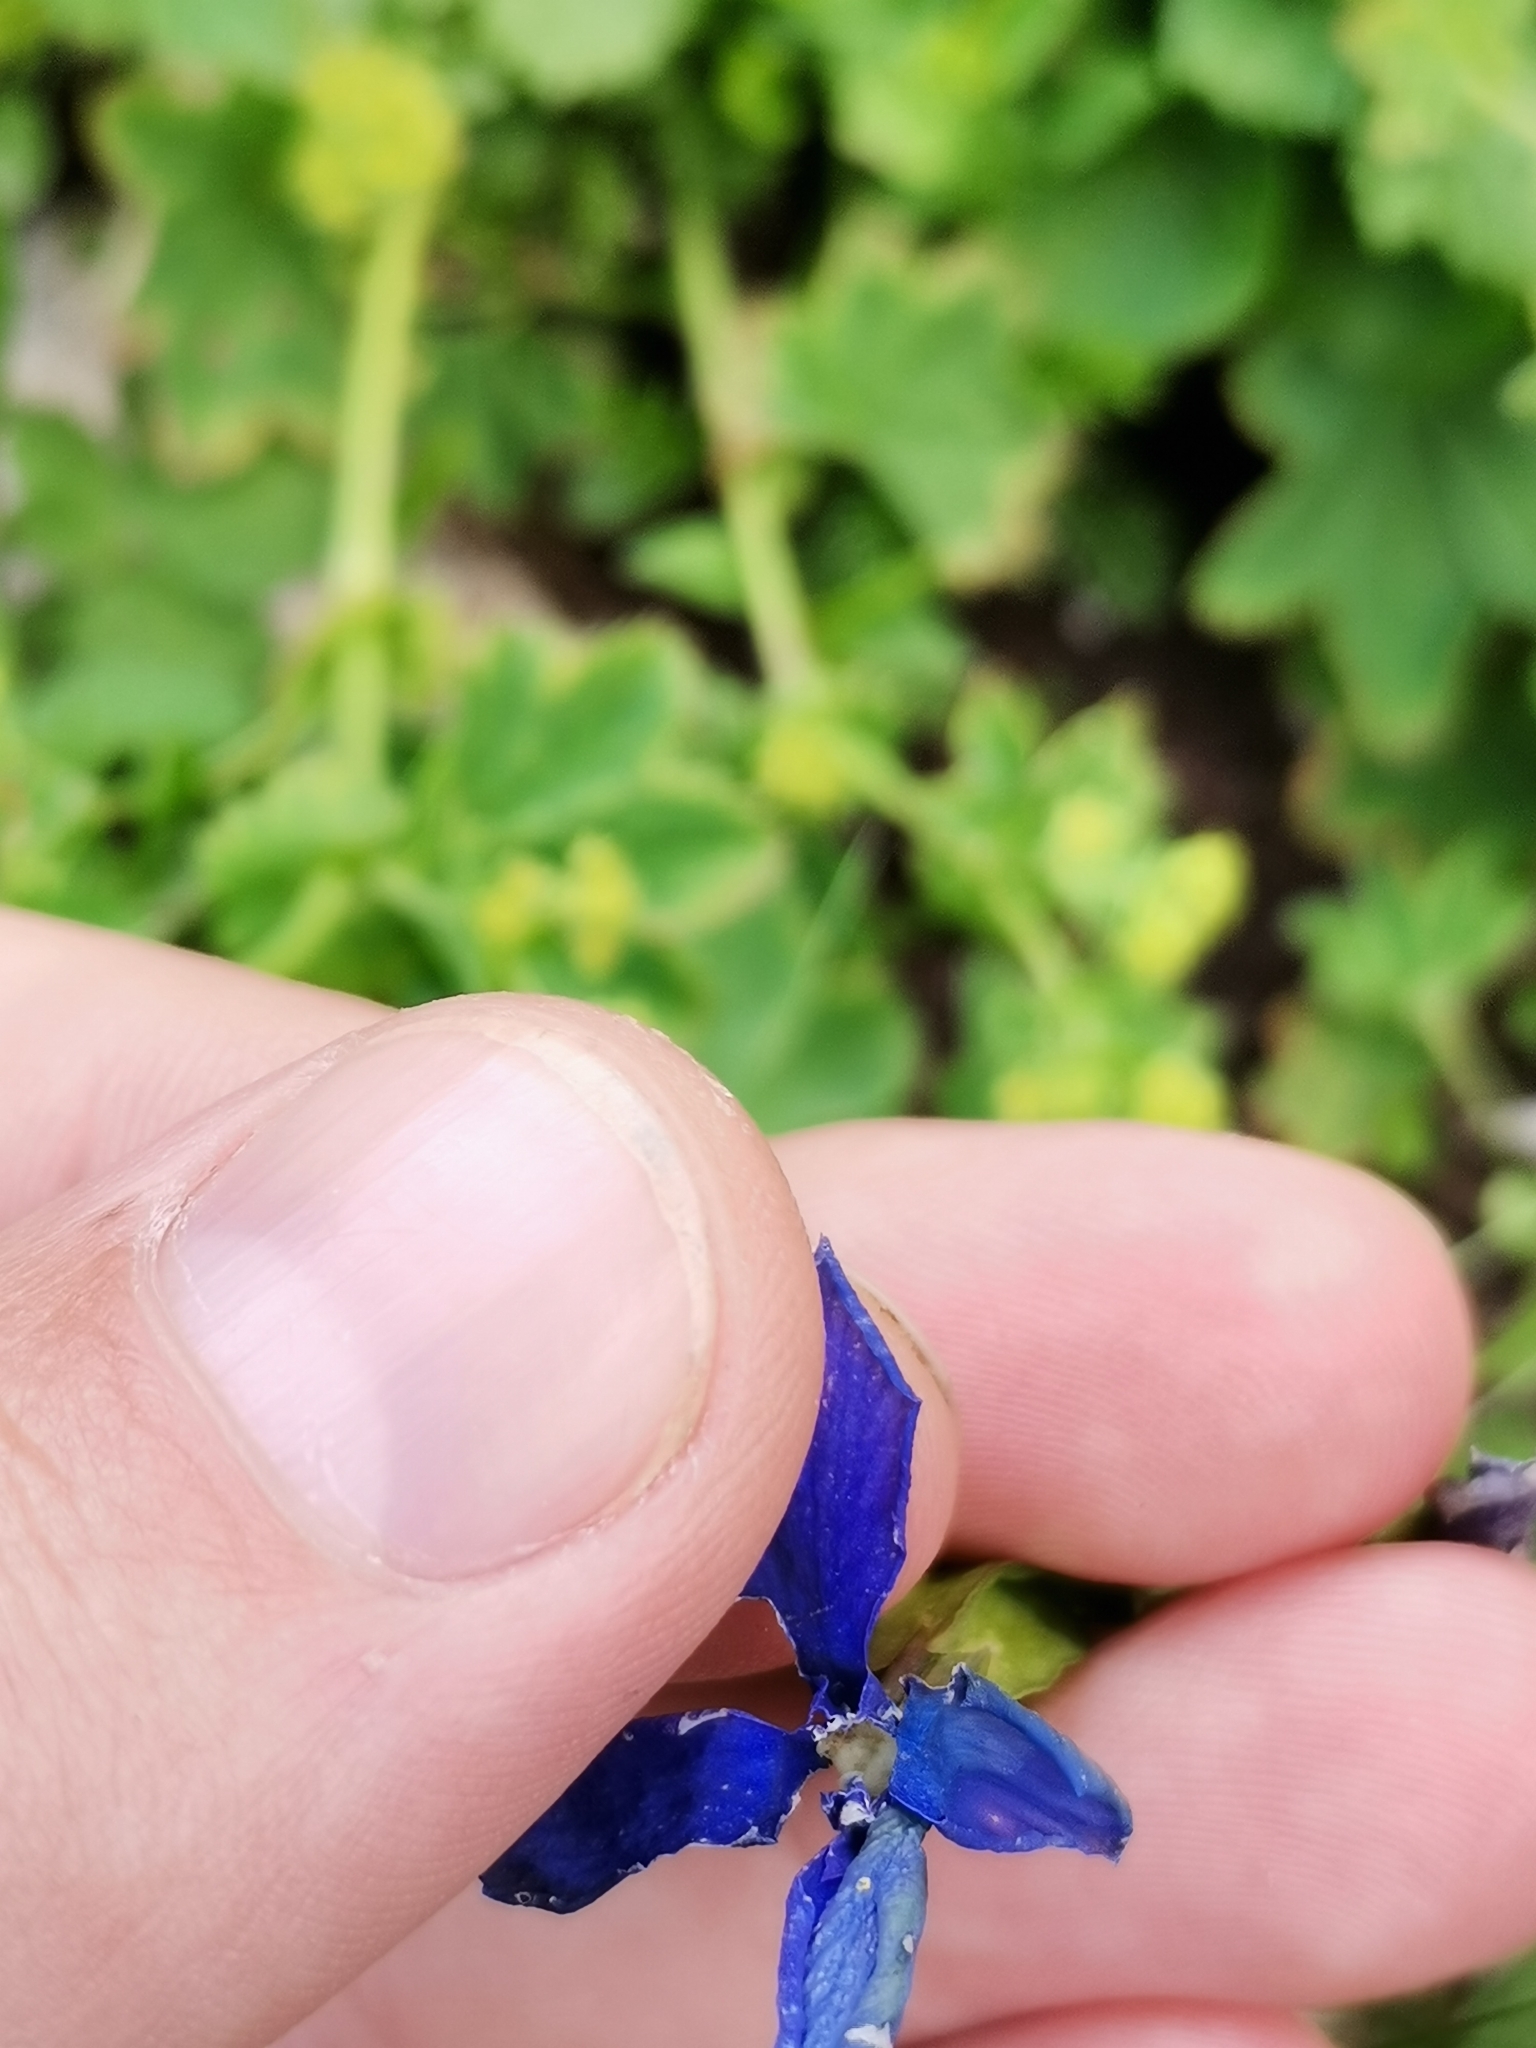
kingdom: Plantae
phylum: Tracheophyta
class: Magnoliopsida
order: Gentianales
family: Gentianaceae
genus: Gentiana
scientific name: Gentiana verna
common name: Spring gentian
